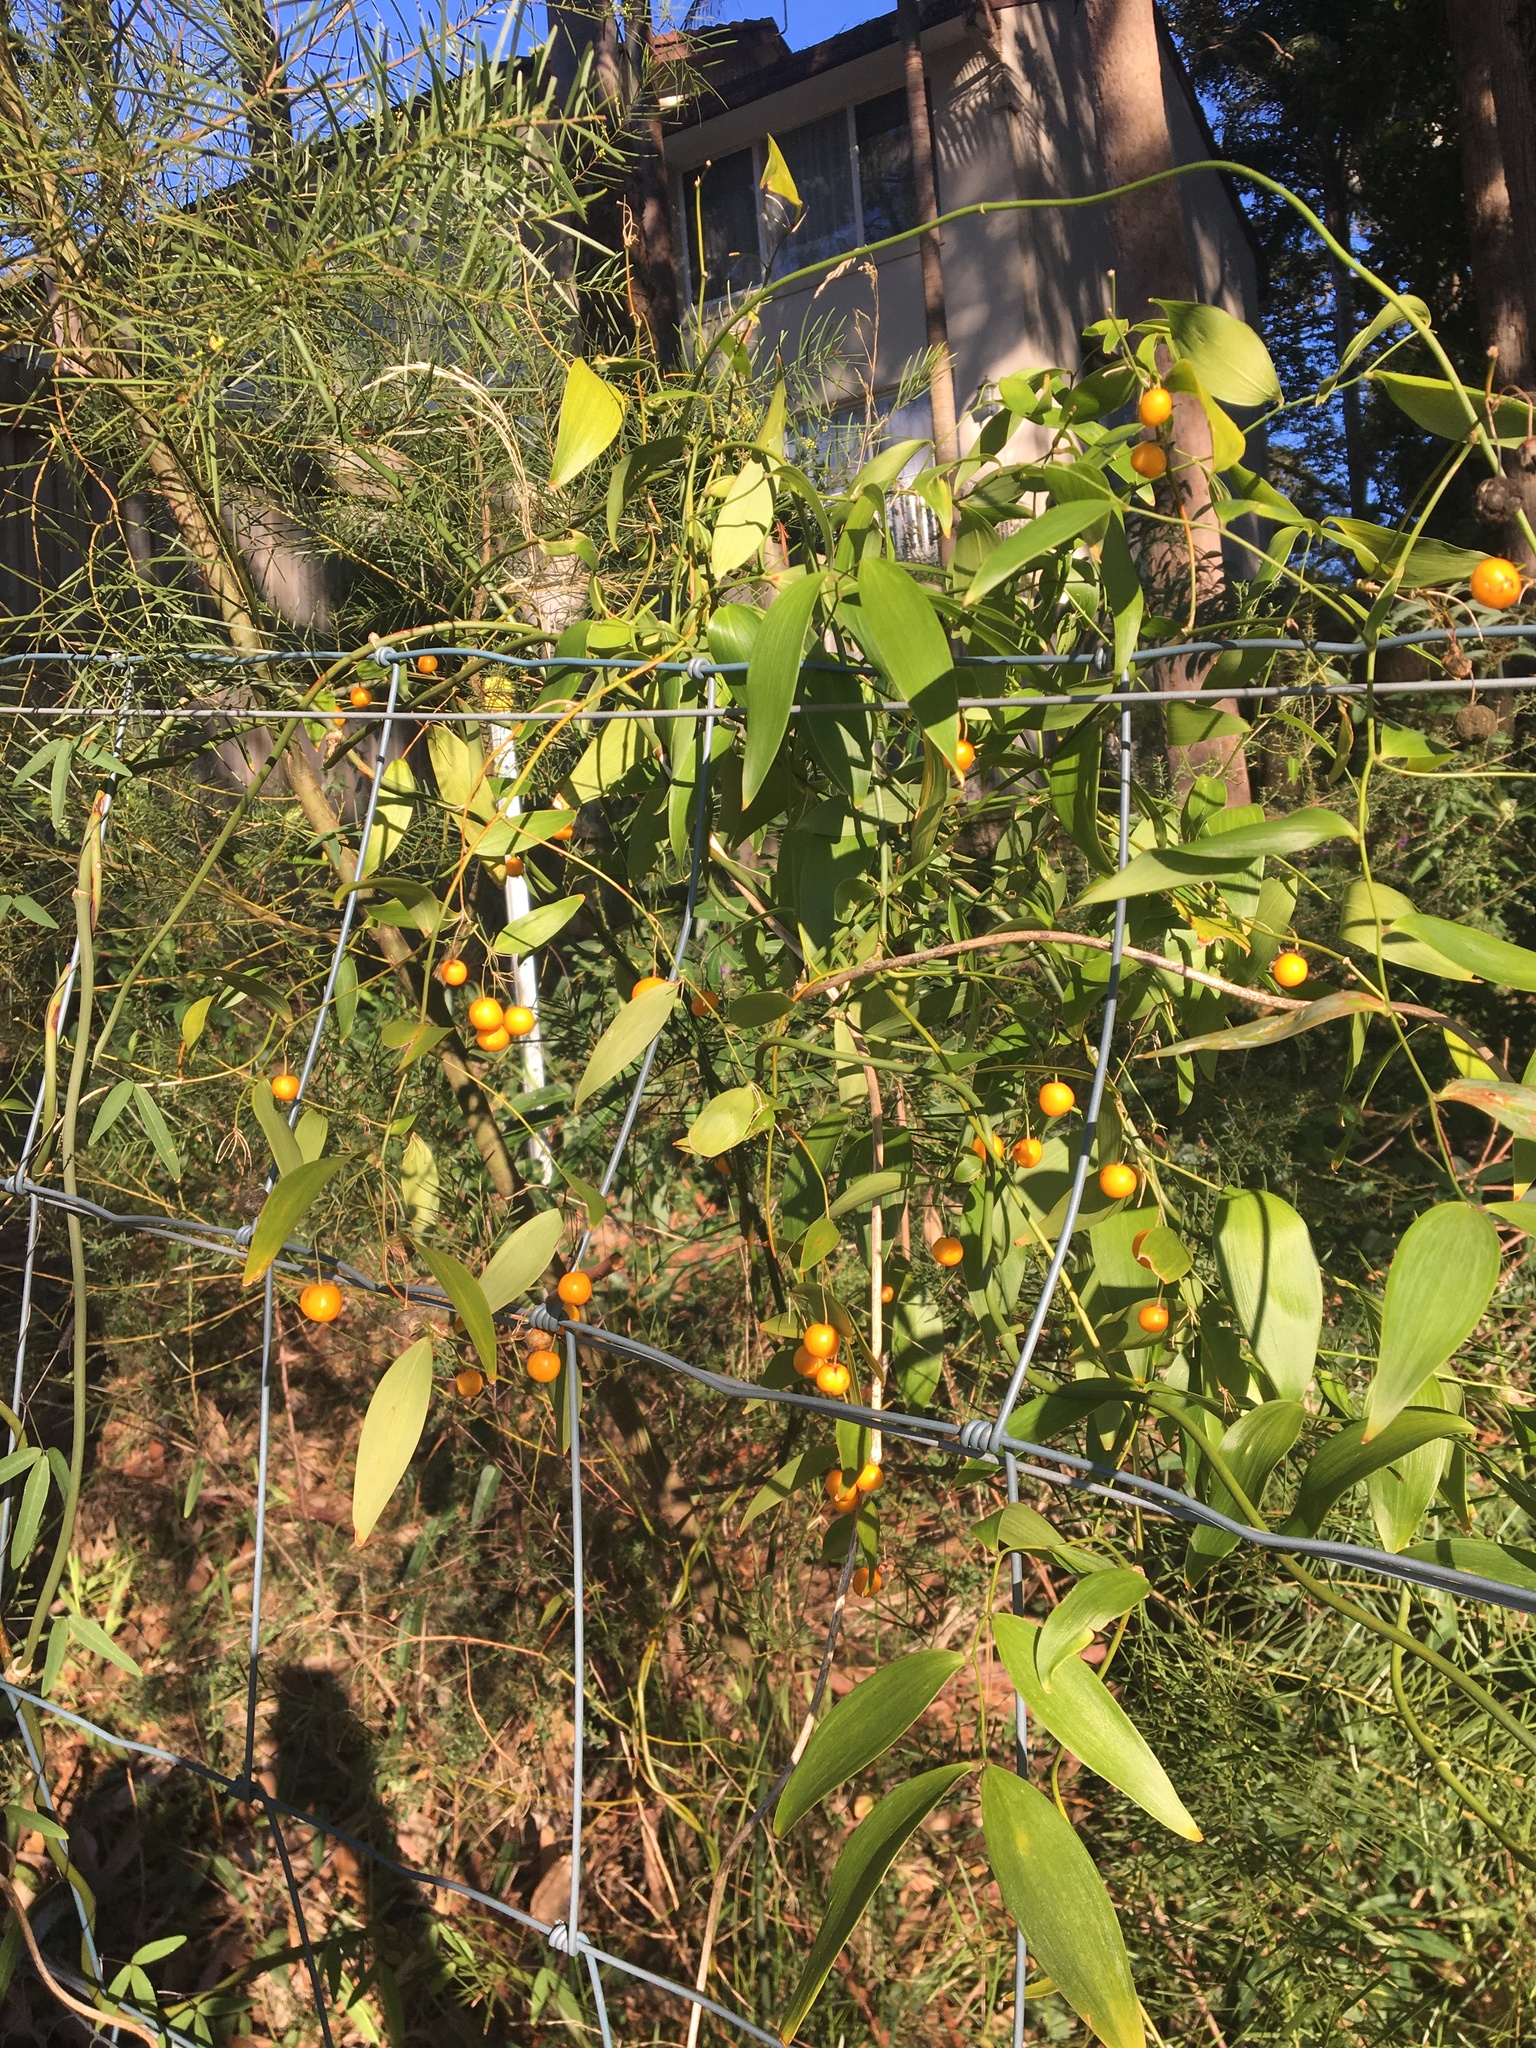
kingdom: Plantae
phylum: Tracheophyta
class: Liliopsida
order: Asparagales
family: Asparagaceae
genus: Eustrephus
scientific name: Eustrephus latifolius
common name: Orangevine
